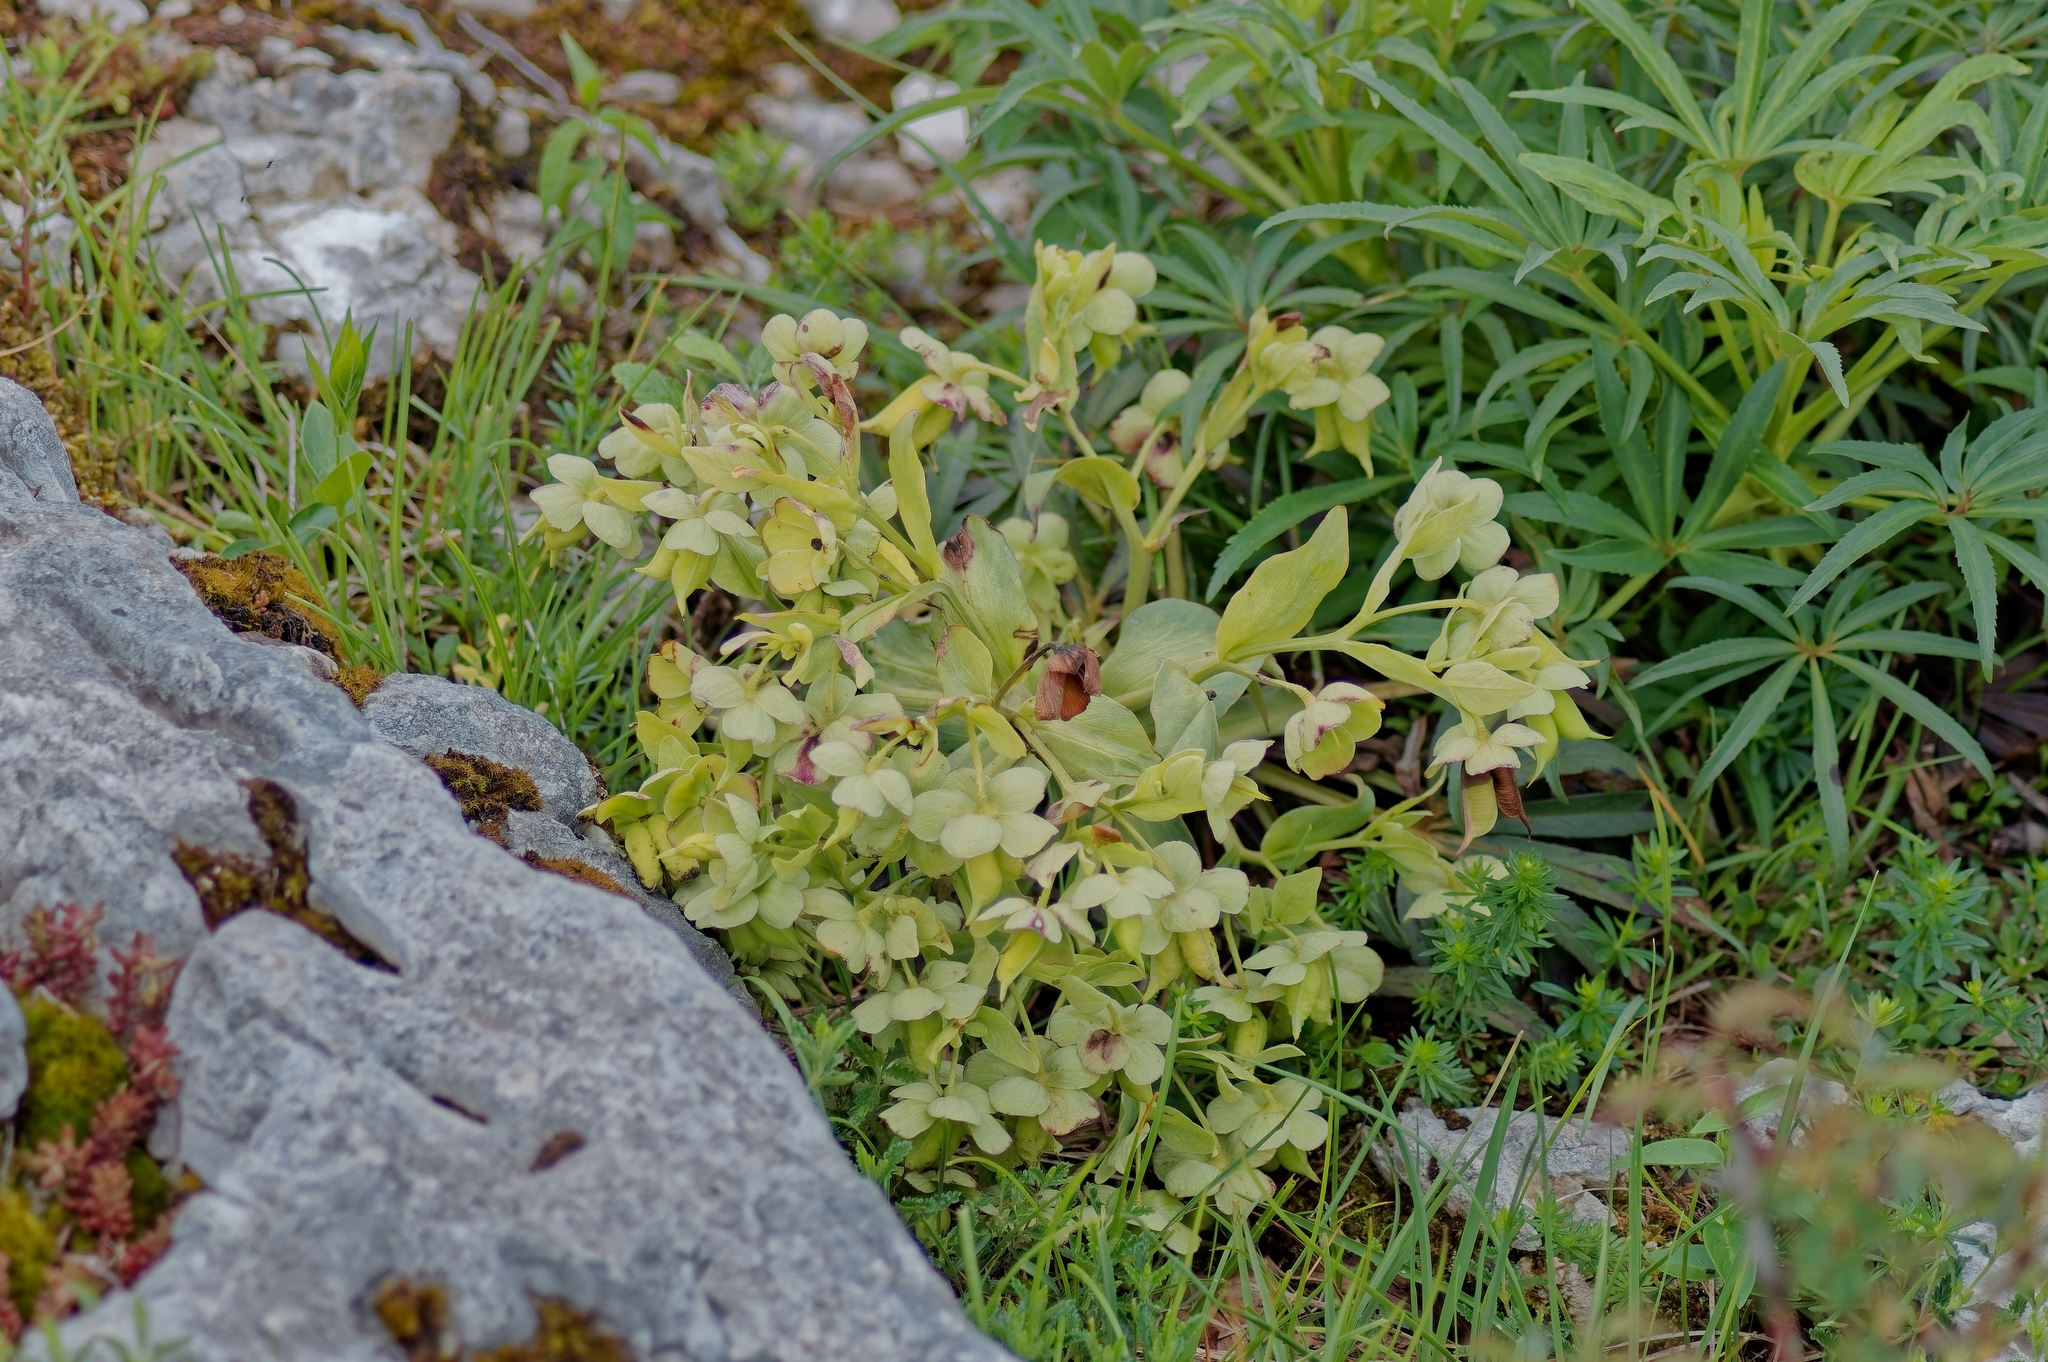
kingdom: Plantae
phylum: Tracheophyta
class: Magnoliopsida
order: Ranunculales
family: Ranunculaceae
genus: Helleborus
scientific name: Helleborus foetidus
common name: Stinking hellebore
